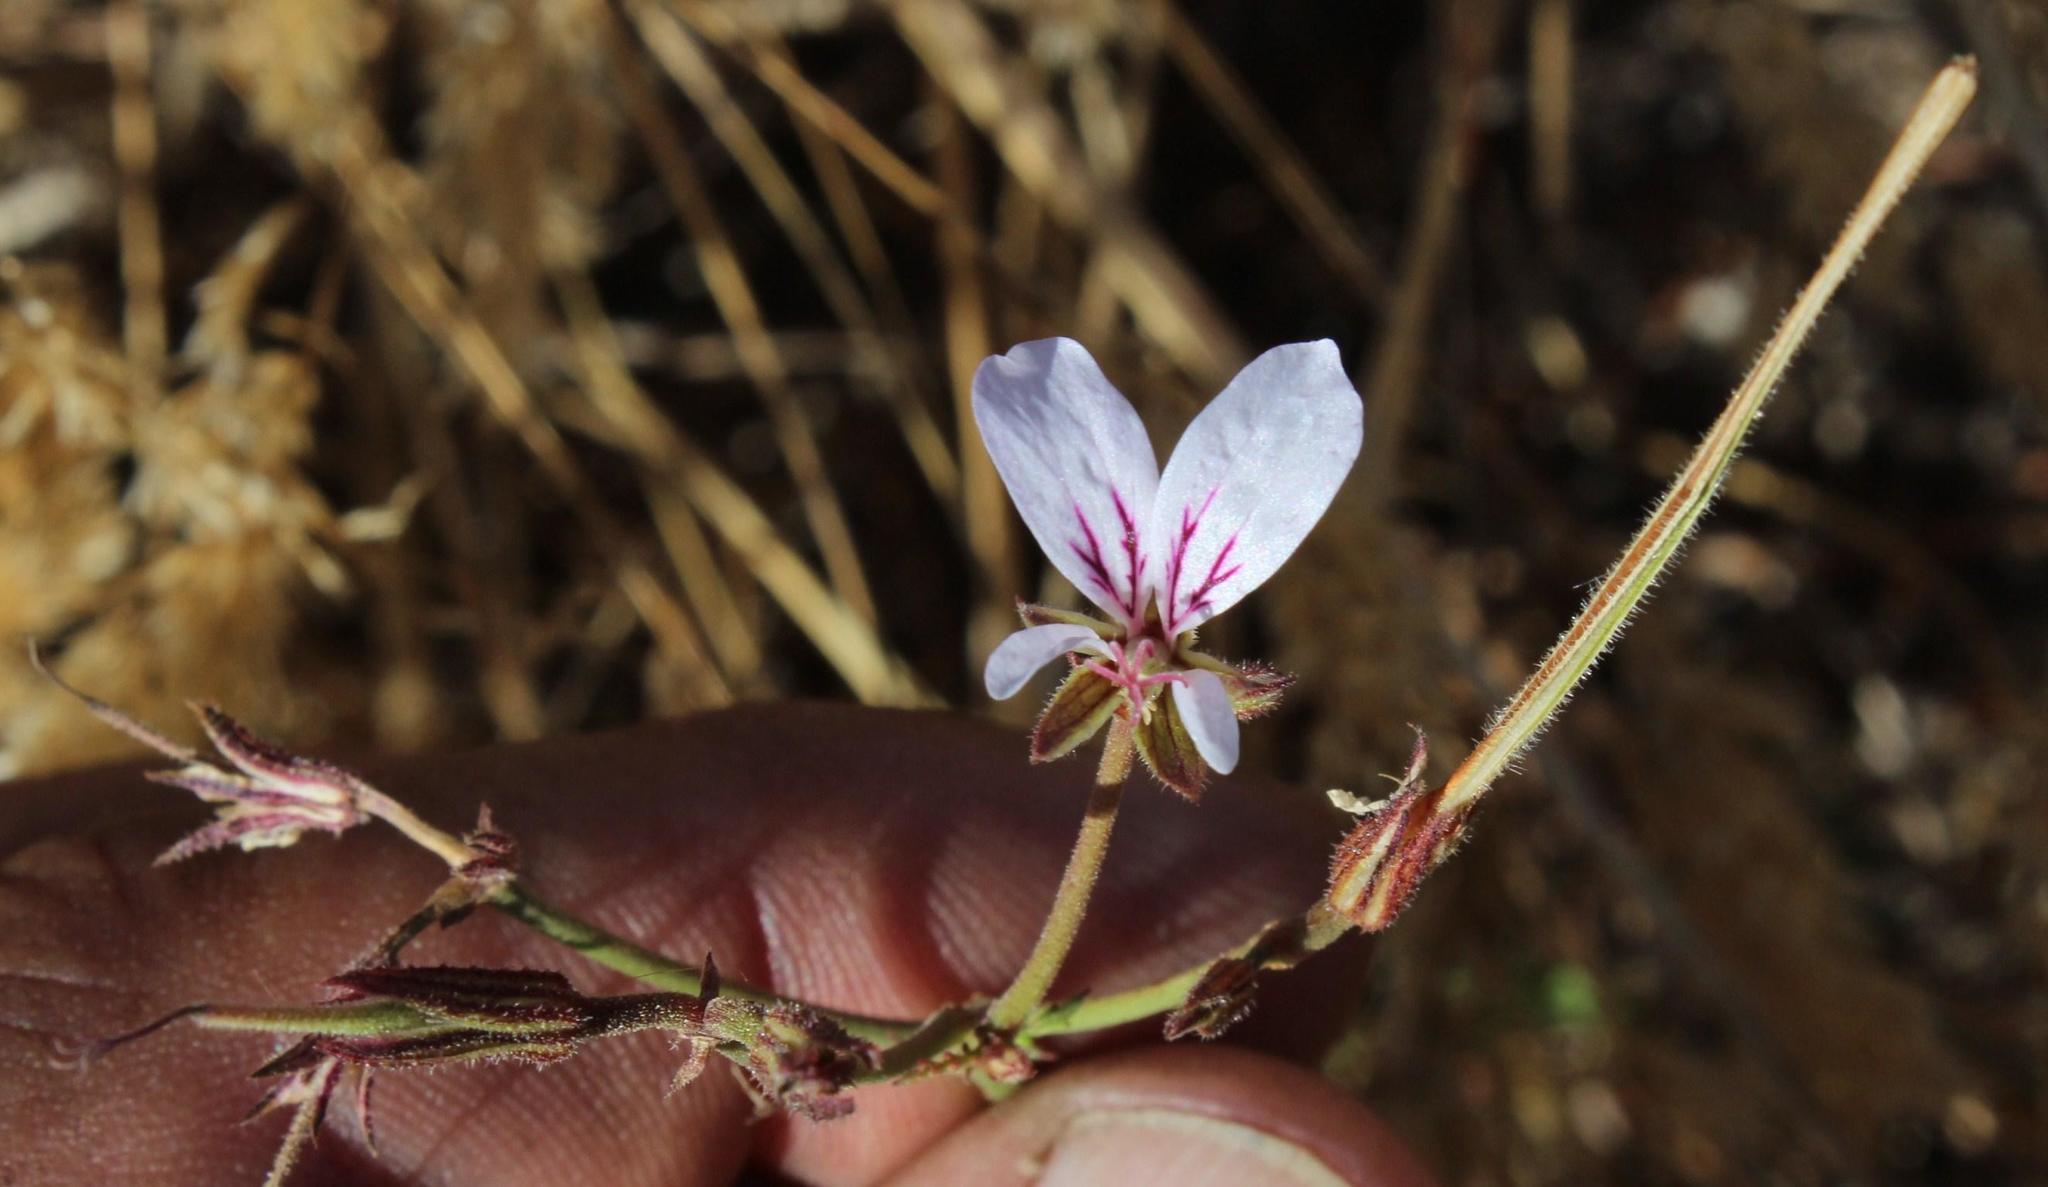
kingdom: Plantae
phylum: Tracheophyta
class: Magnoliopsida
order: Geraniales
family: Geraniaceae
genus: Pelargonium
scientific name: Pelargonium myrrhifolium
